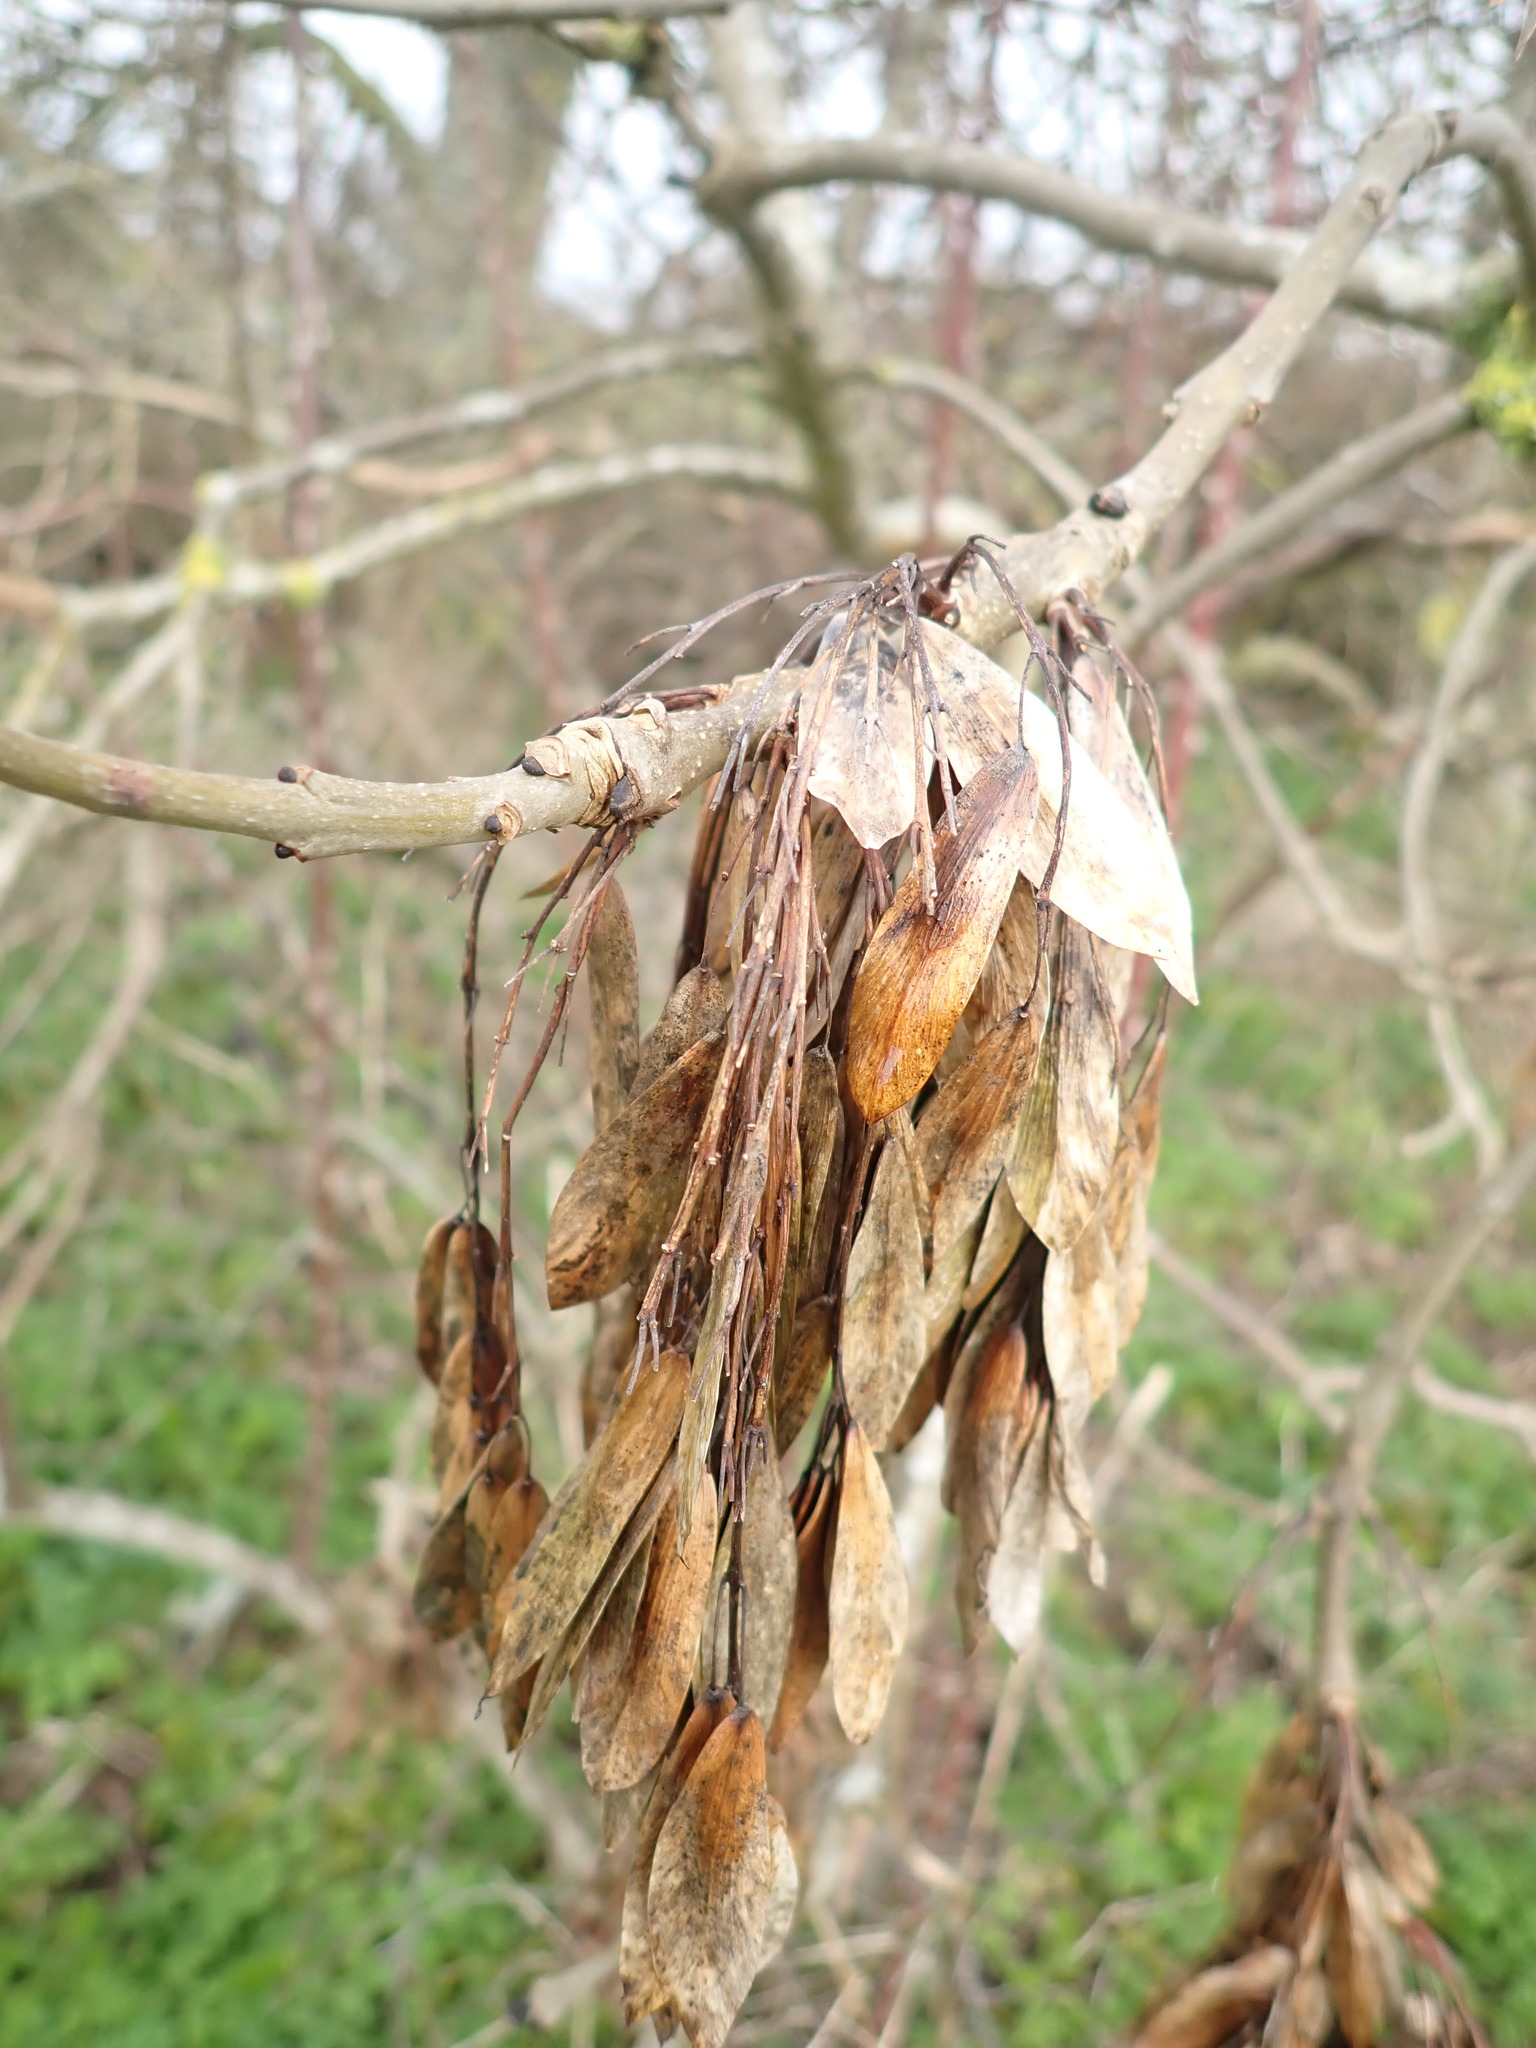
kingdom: Plantae
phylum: Tracheophyta
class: Magnoliopsida
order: Lamiales
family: Oleaceae
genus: Fraxinus
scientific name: Fraxinus excelsior
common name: European ash
